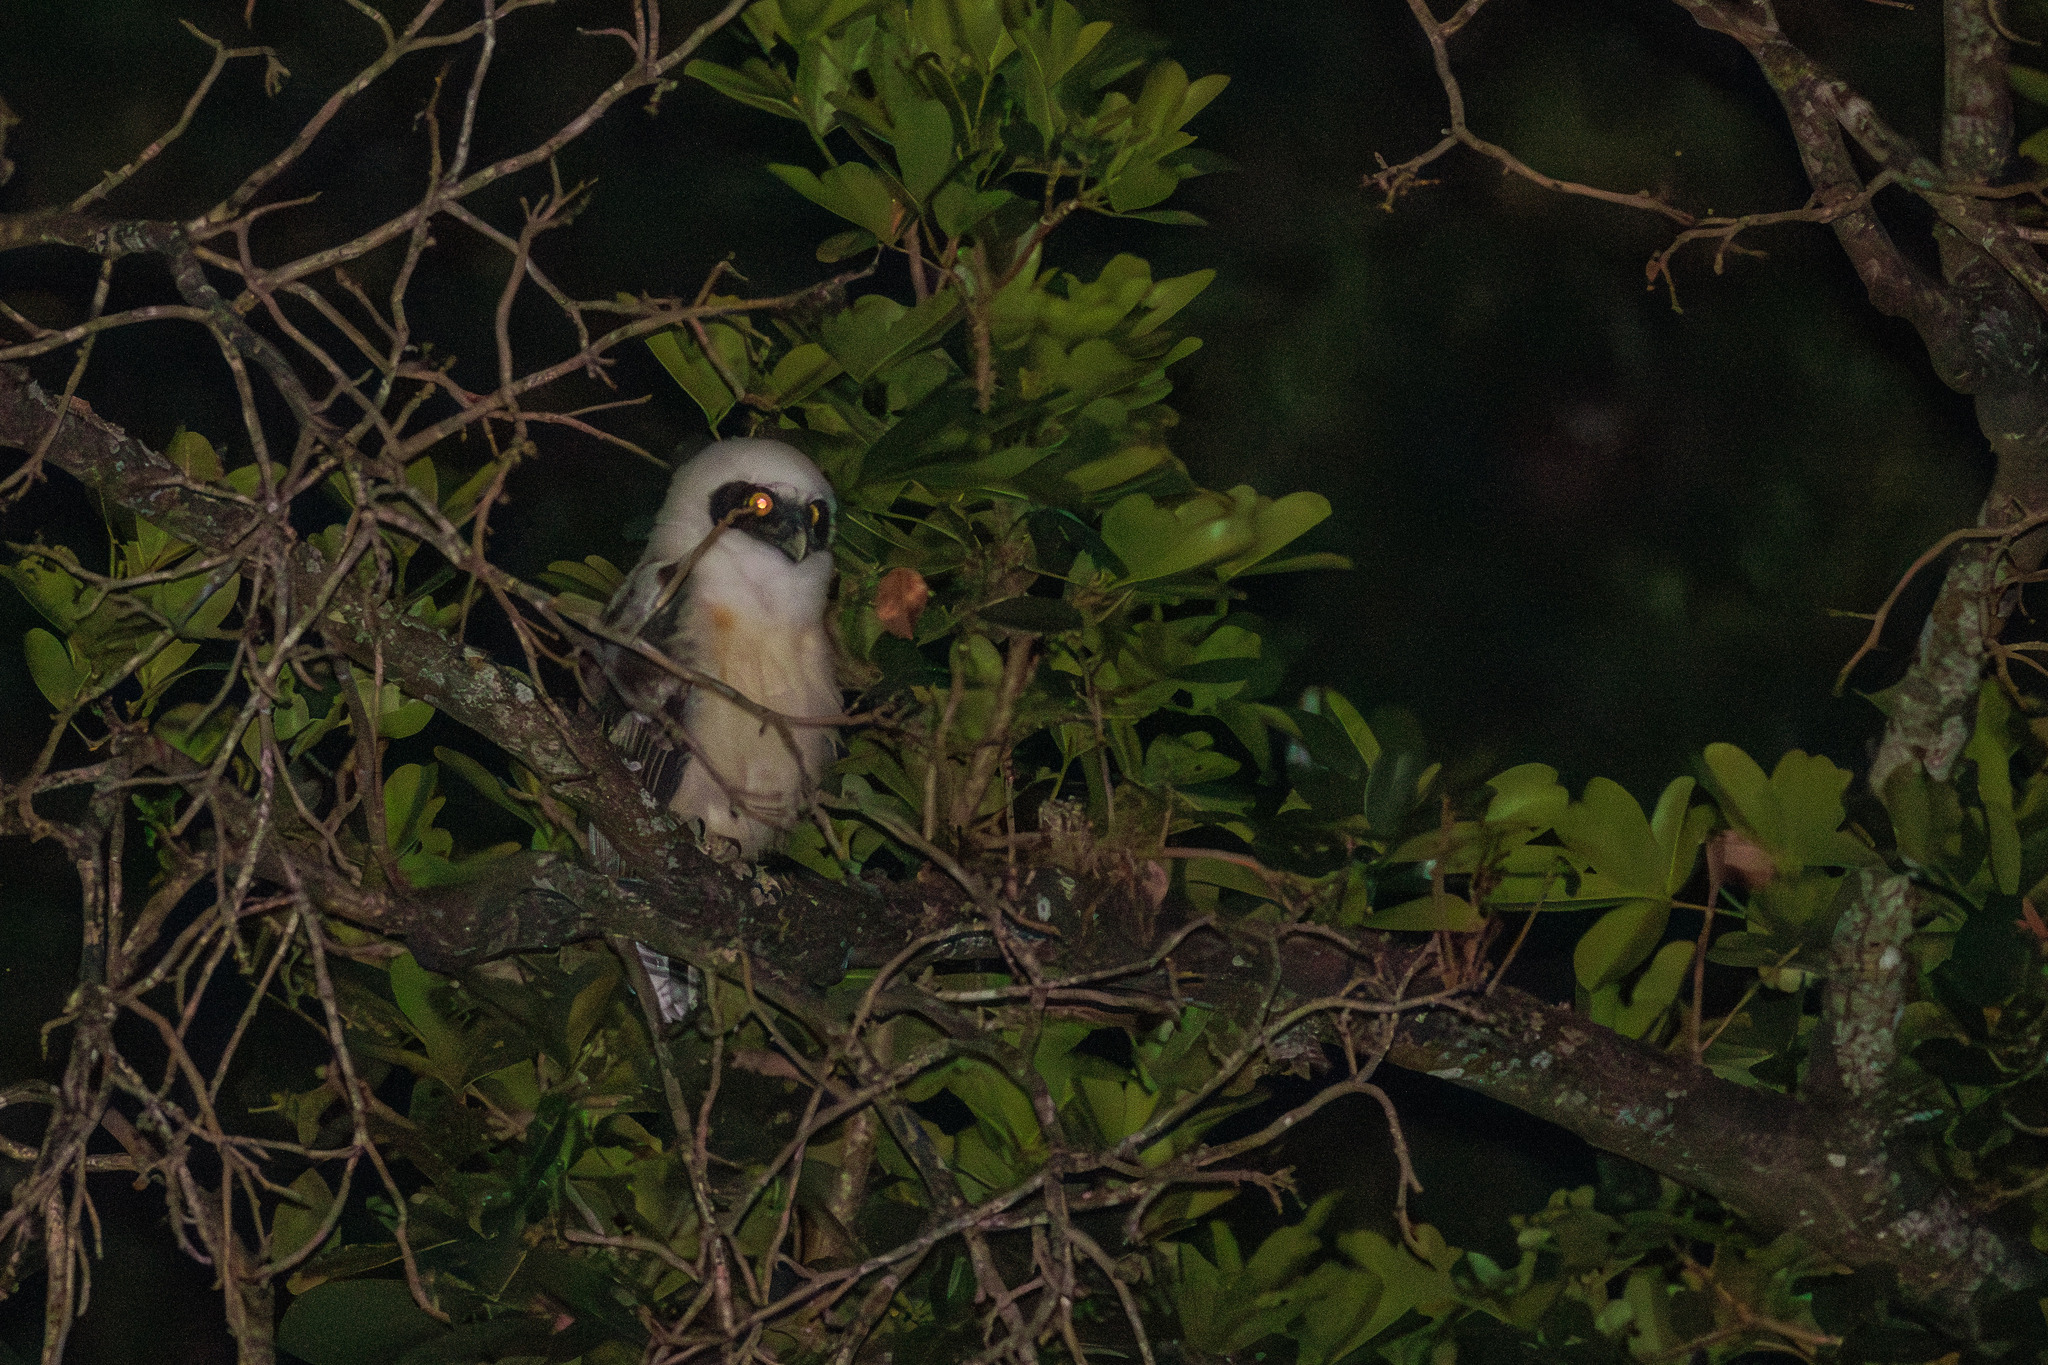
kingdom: Animalia
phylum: Chordata
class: Aves
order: Strigiformes
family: Strigidae
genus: Pulsatrix
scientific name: Pulsatrix perspicillata
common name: Spectacled owl
